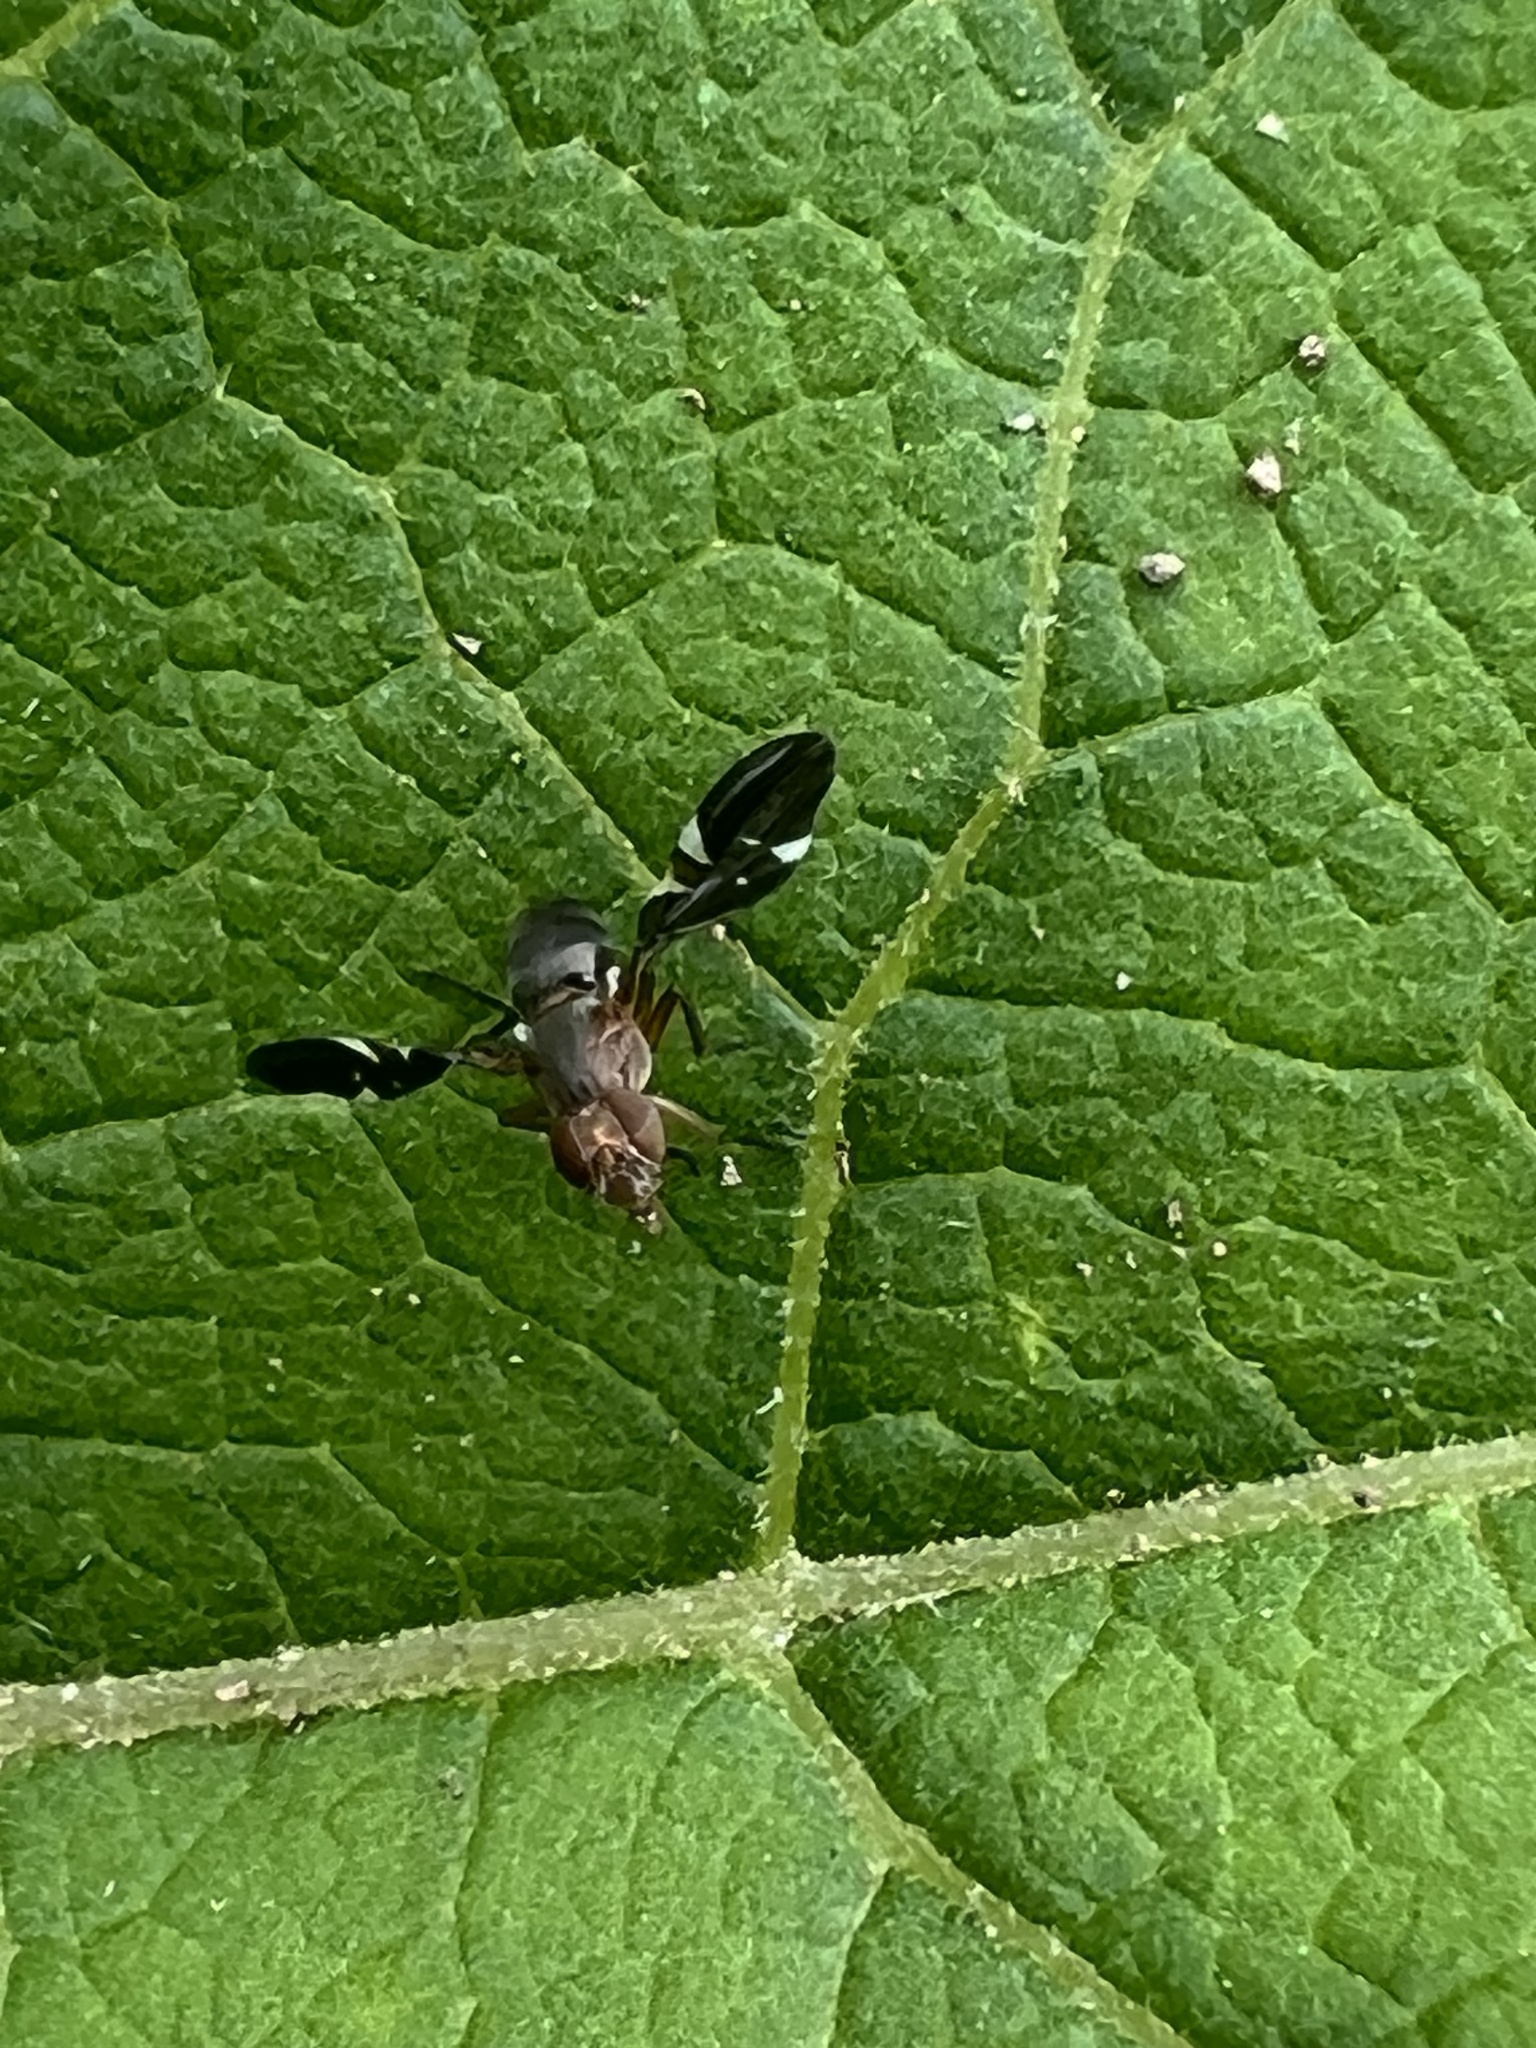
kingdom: Animalia
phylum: Arthropoda
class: Insecta
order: Diptera
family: Ulidiidae
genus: Delphinia
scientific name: Delphinia picta
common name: Common picture-winged fly
